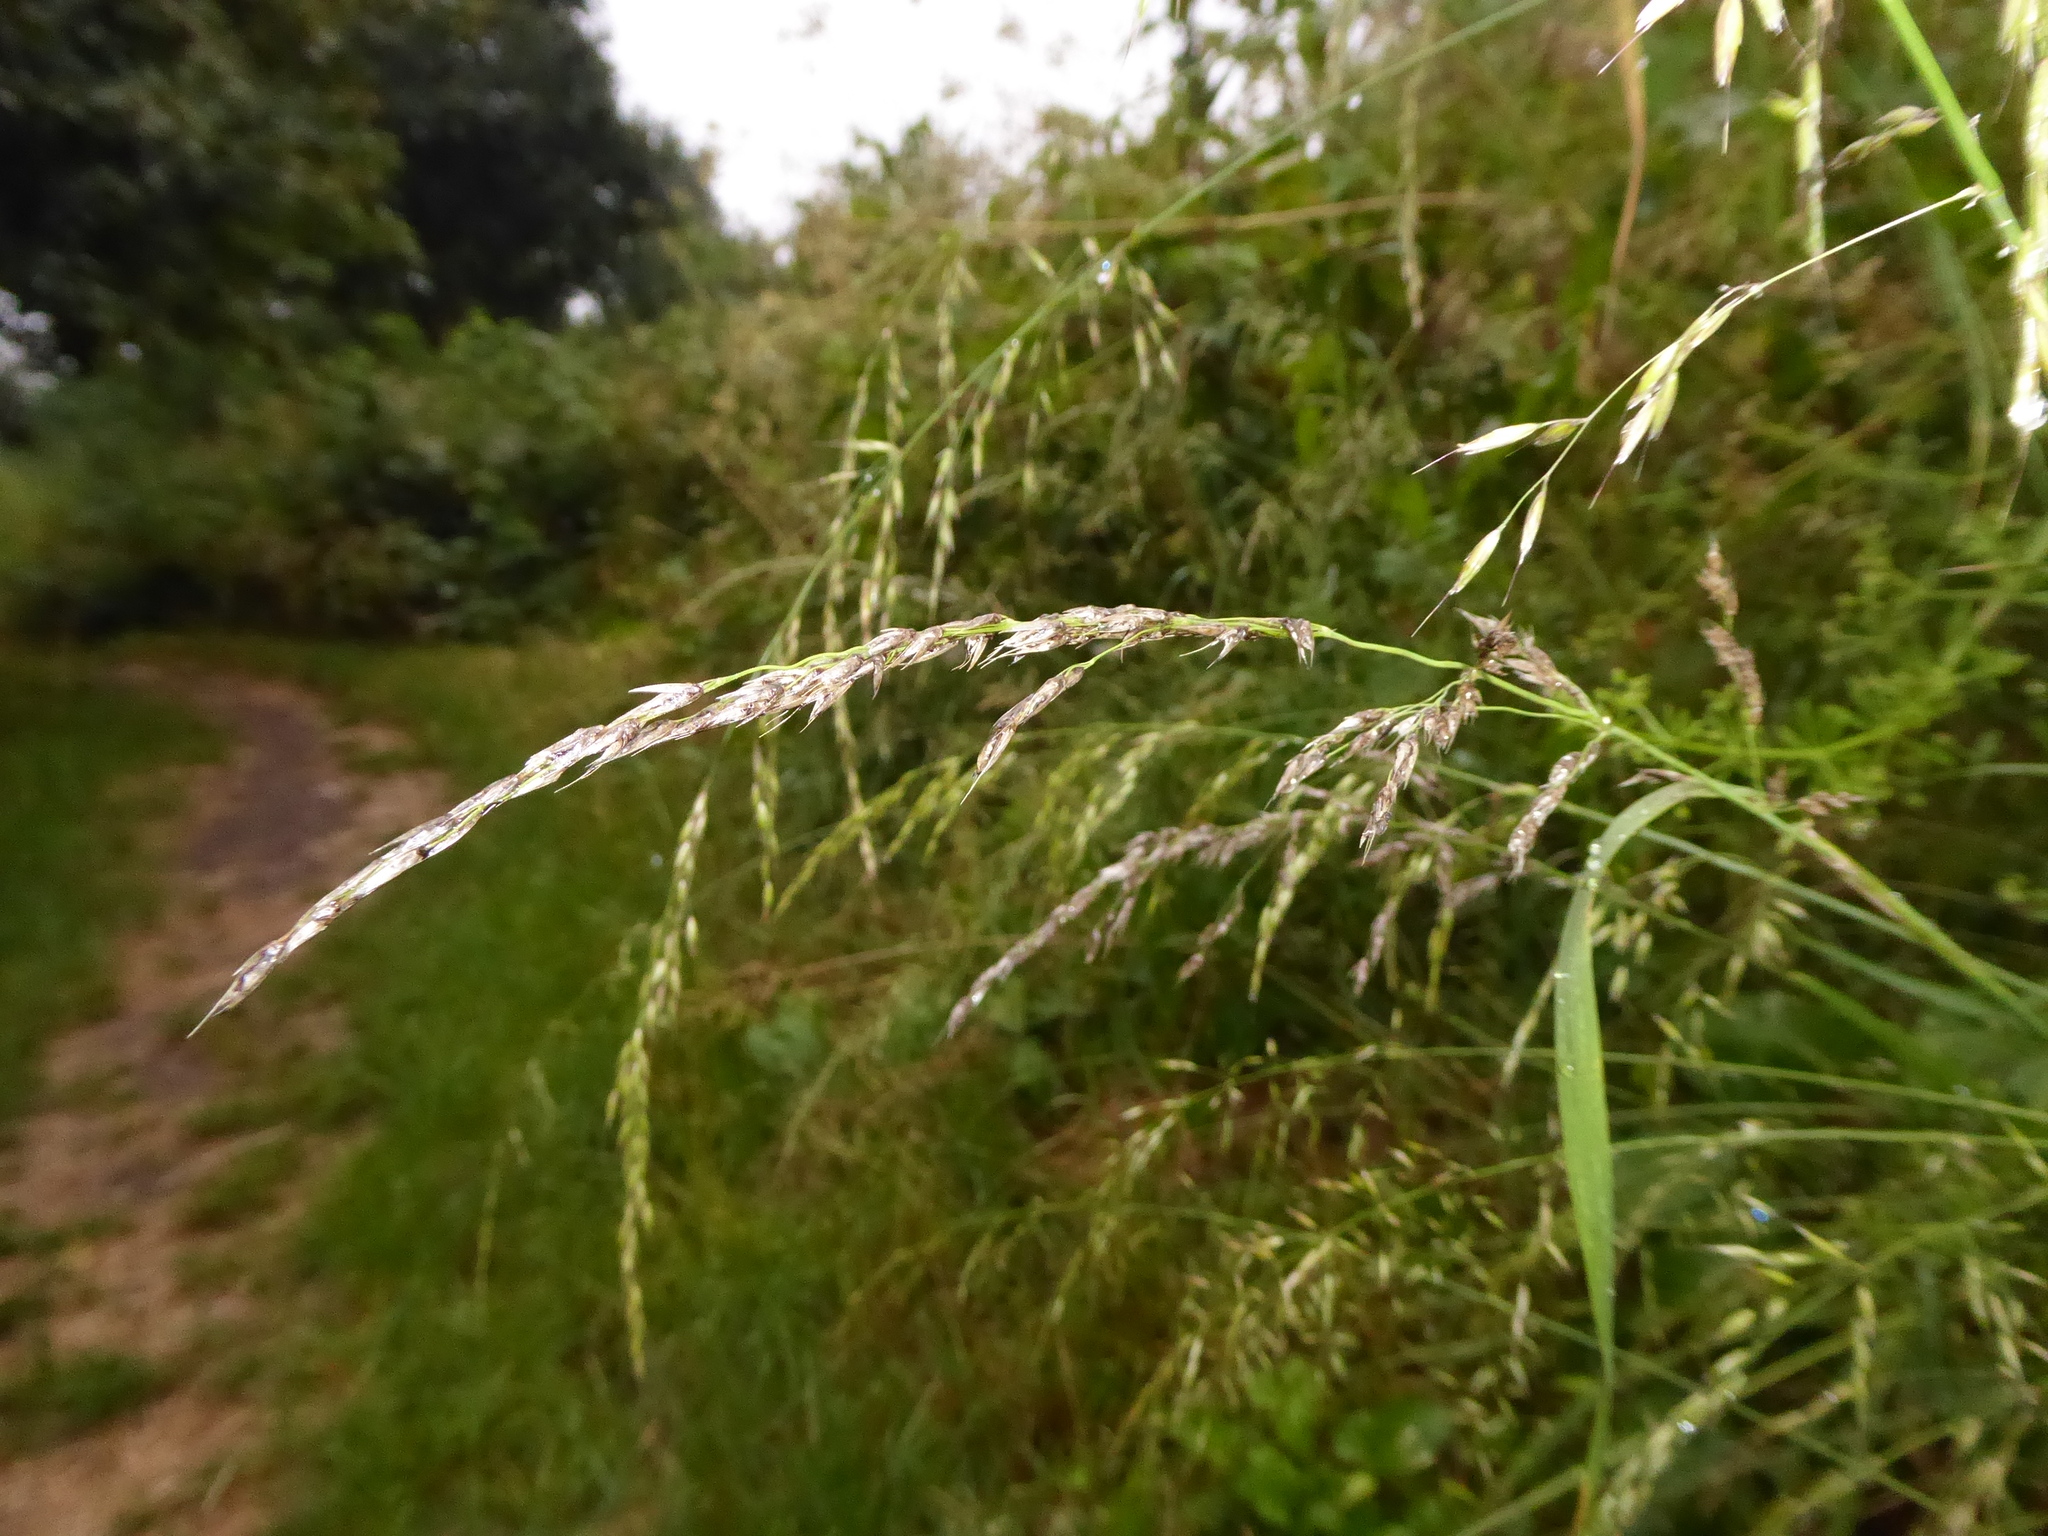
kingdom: Plantae
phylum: Tracheophyta
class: Liliopsida
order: Poales
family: Poaceae
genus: Arrhenatherum
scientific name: Arrhenatherum elatius
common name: Tall oatgrass
